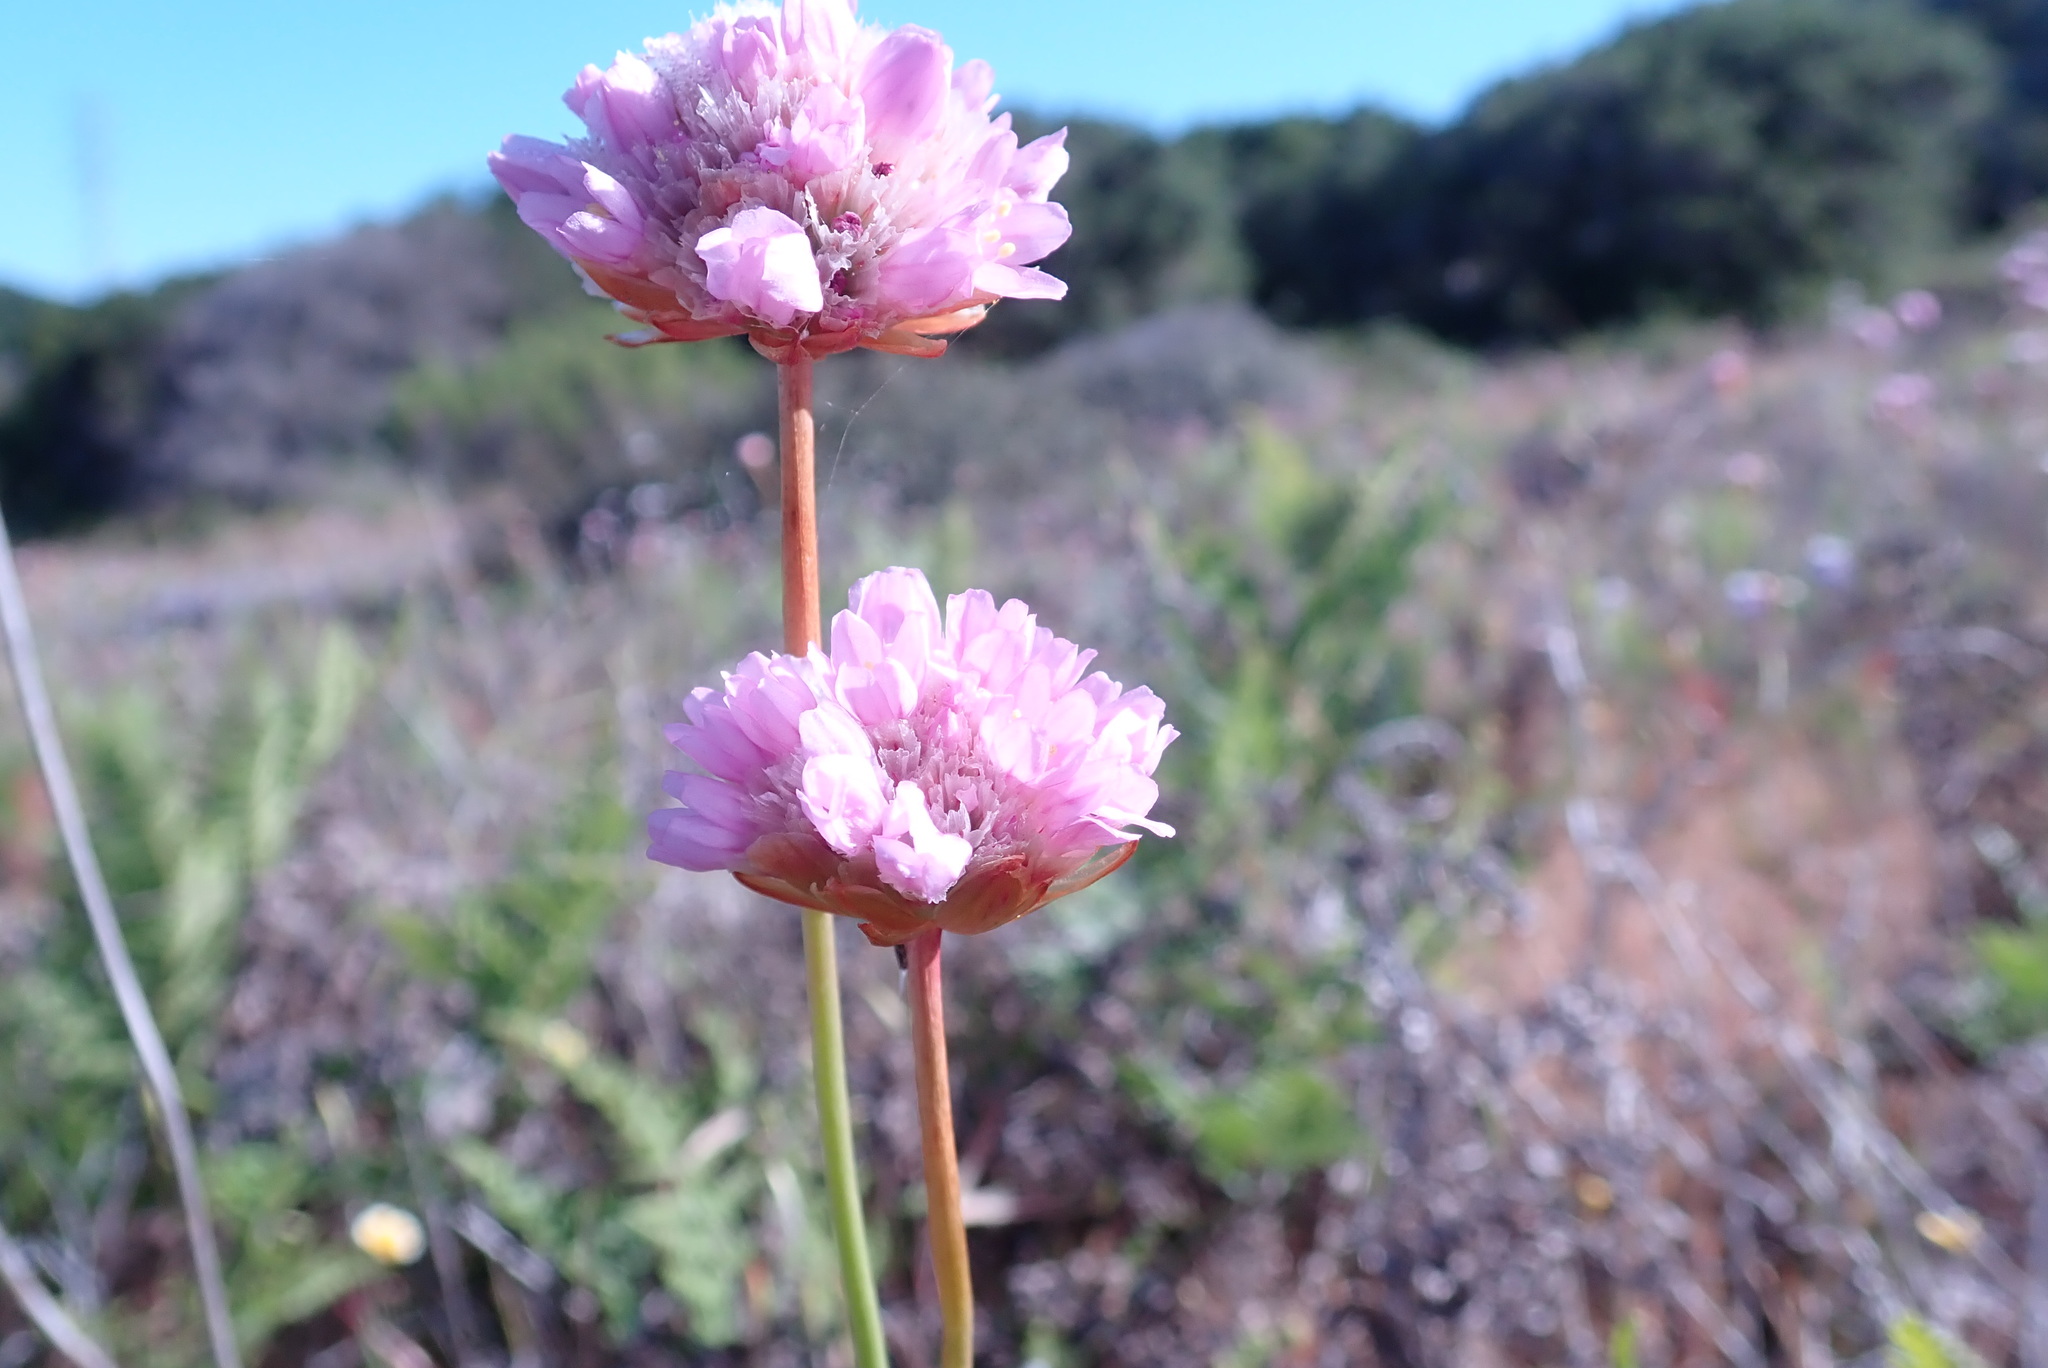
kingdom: Plantae
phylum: Tracheophyta
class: Magnoliopsida
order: Caryophyllales
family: Plumbaginaceae
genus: Armeria
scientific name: Armeria maritima
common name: Thrift
